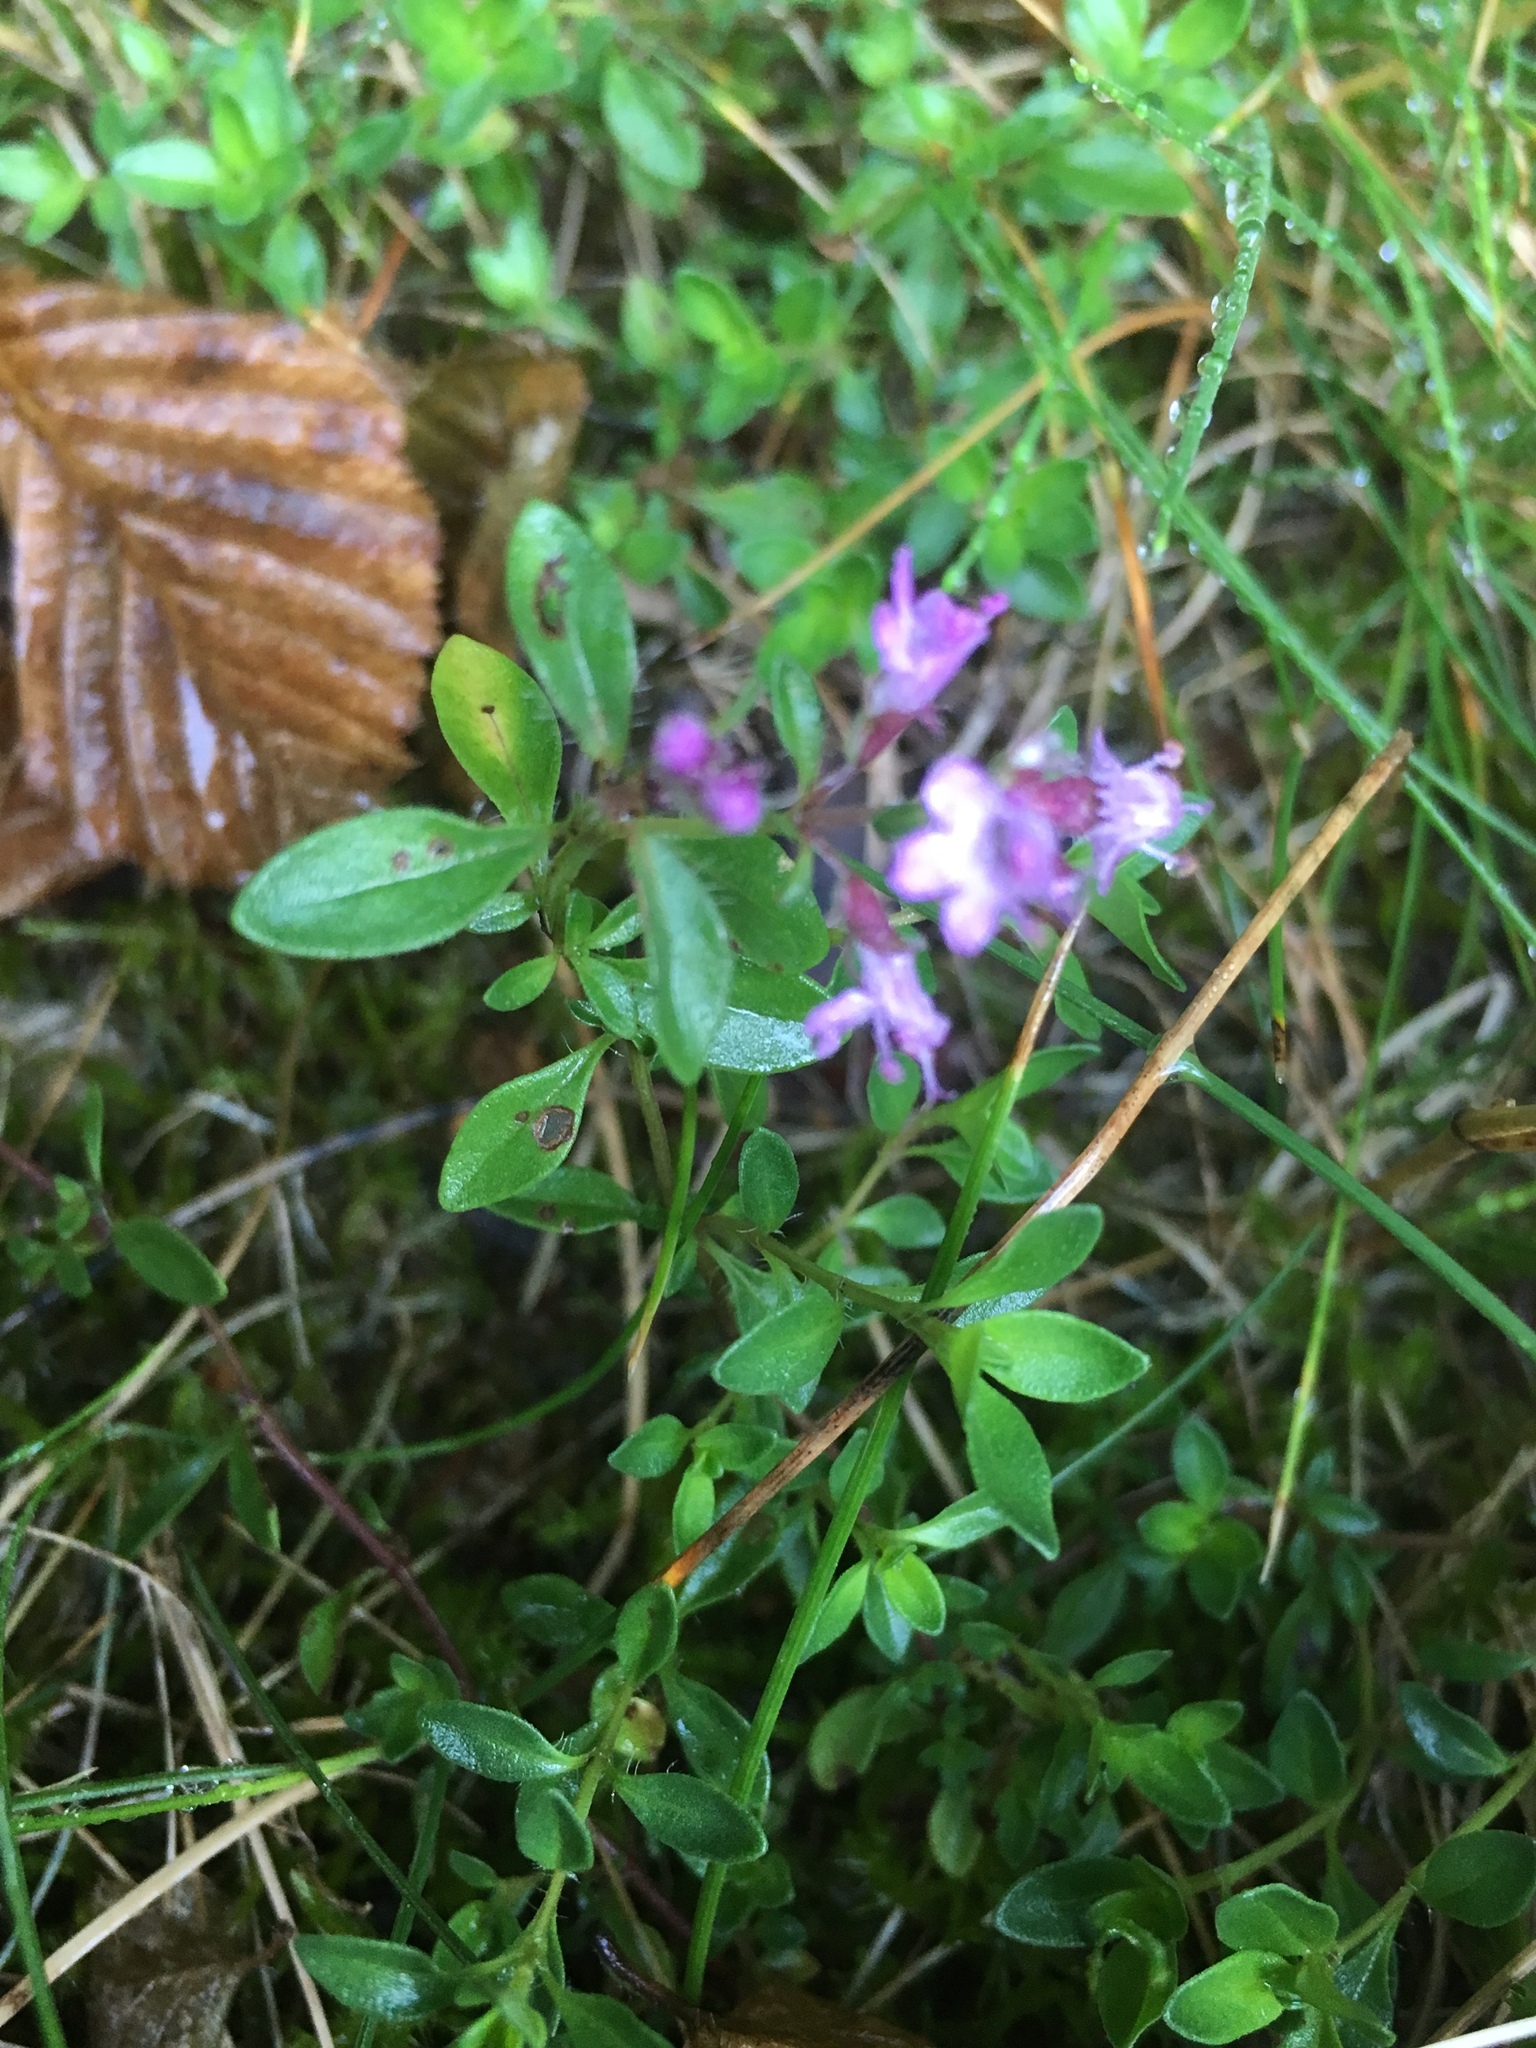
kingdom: Plantae
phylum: Tracheophyta
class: Magnoliopsida
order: Lamiales
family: Lamiaceae
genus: Thymus
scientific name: Thymus pulegioides
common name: Large thyme
